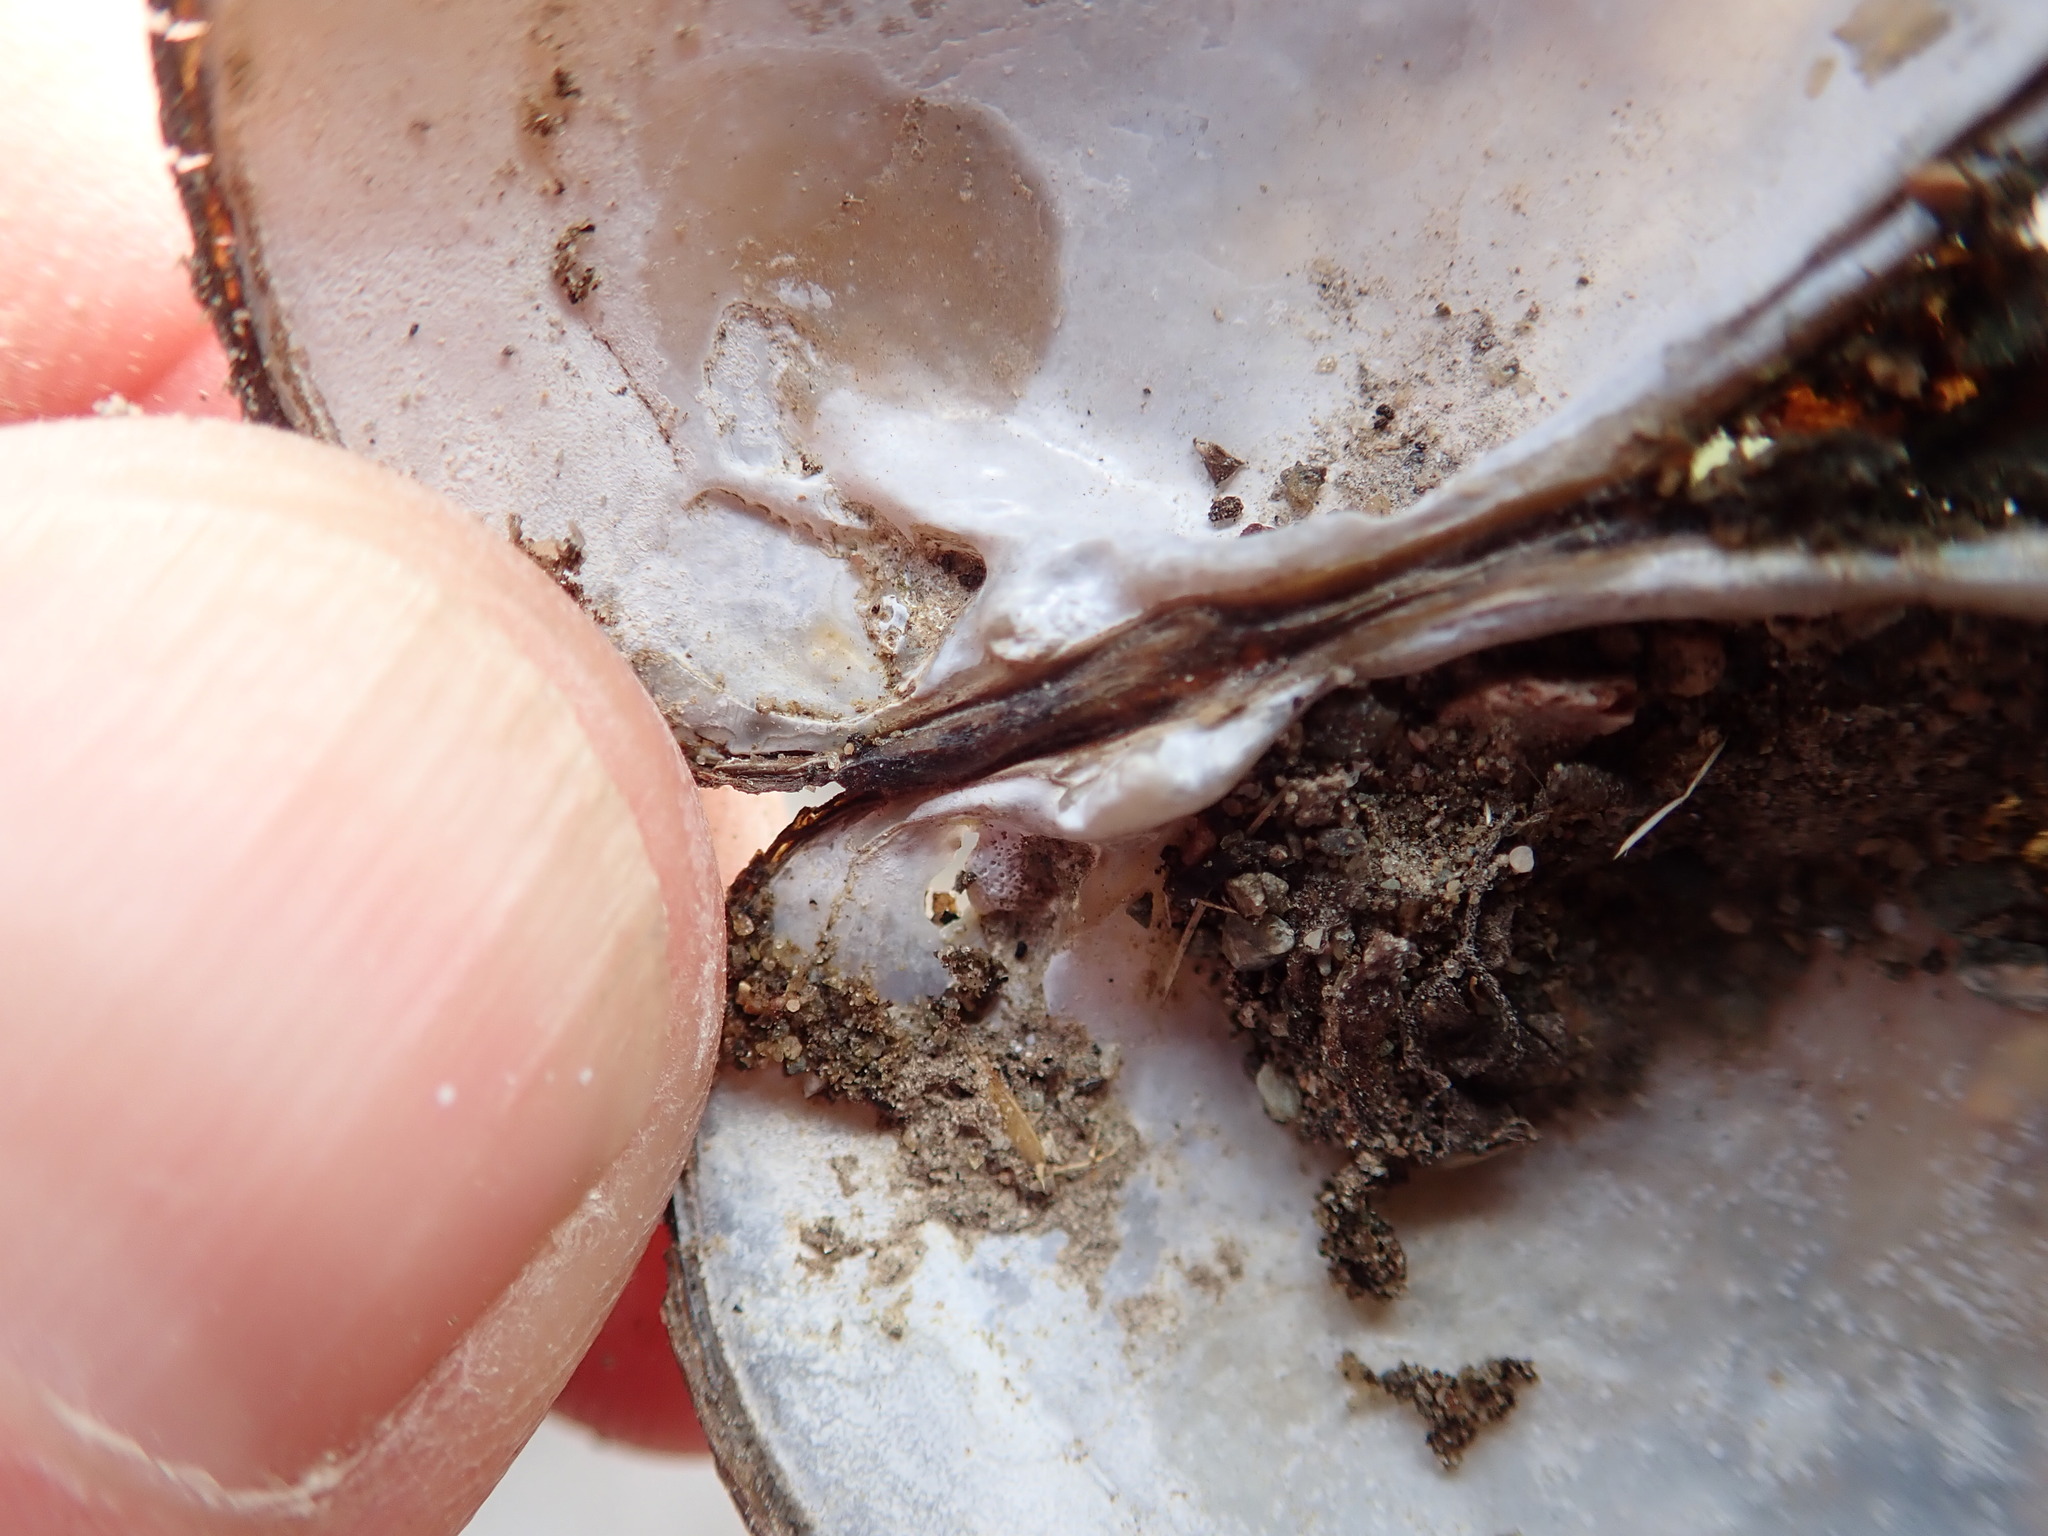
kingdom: Animalia
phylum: Mollusca
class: Bivalvia
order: Unionida
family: Unionidae
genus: Lampsilis
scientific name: Lampsilis siliquoidea
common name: Fatmucket
